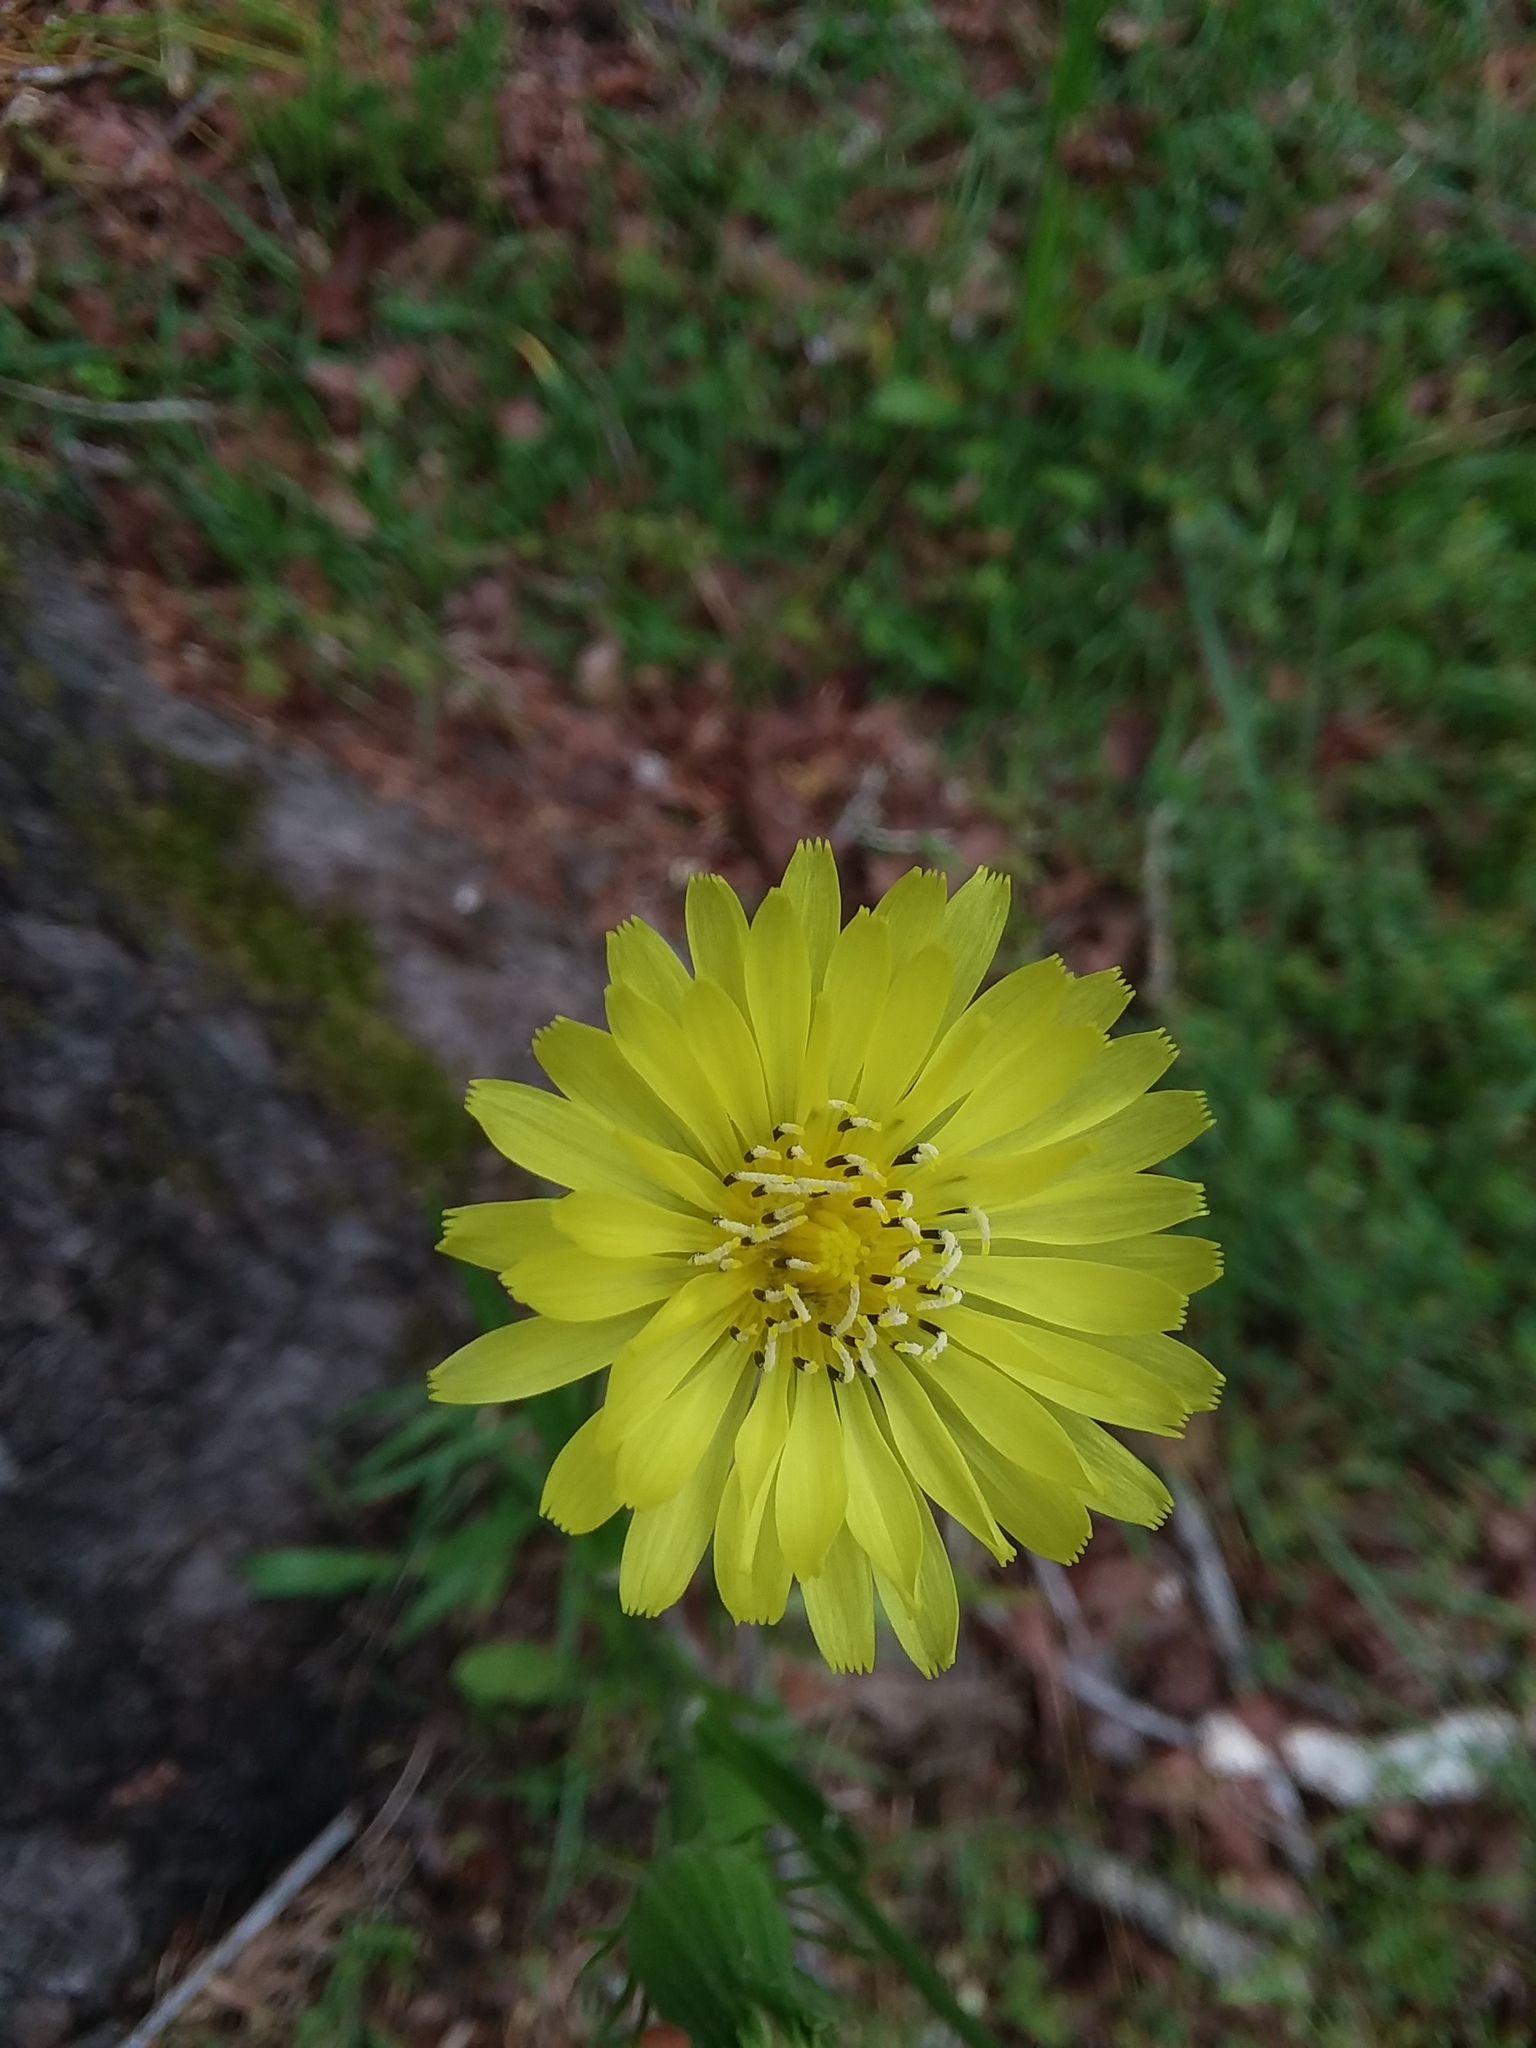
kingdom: Plantae
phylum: Tracheophyta
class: Magnoliopsida
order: Asterales
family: Asteraceae
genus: Pyrrhopappus
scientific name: Pyrrhopappus carolinianus
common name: Carolina desert-chicory
